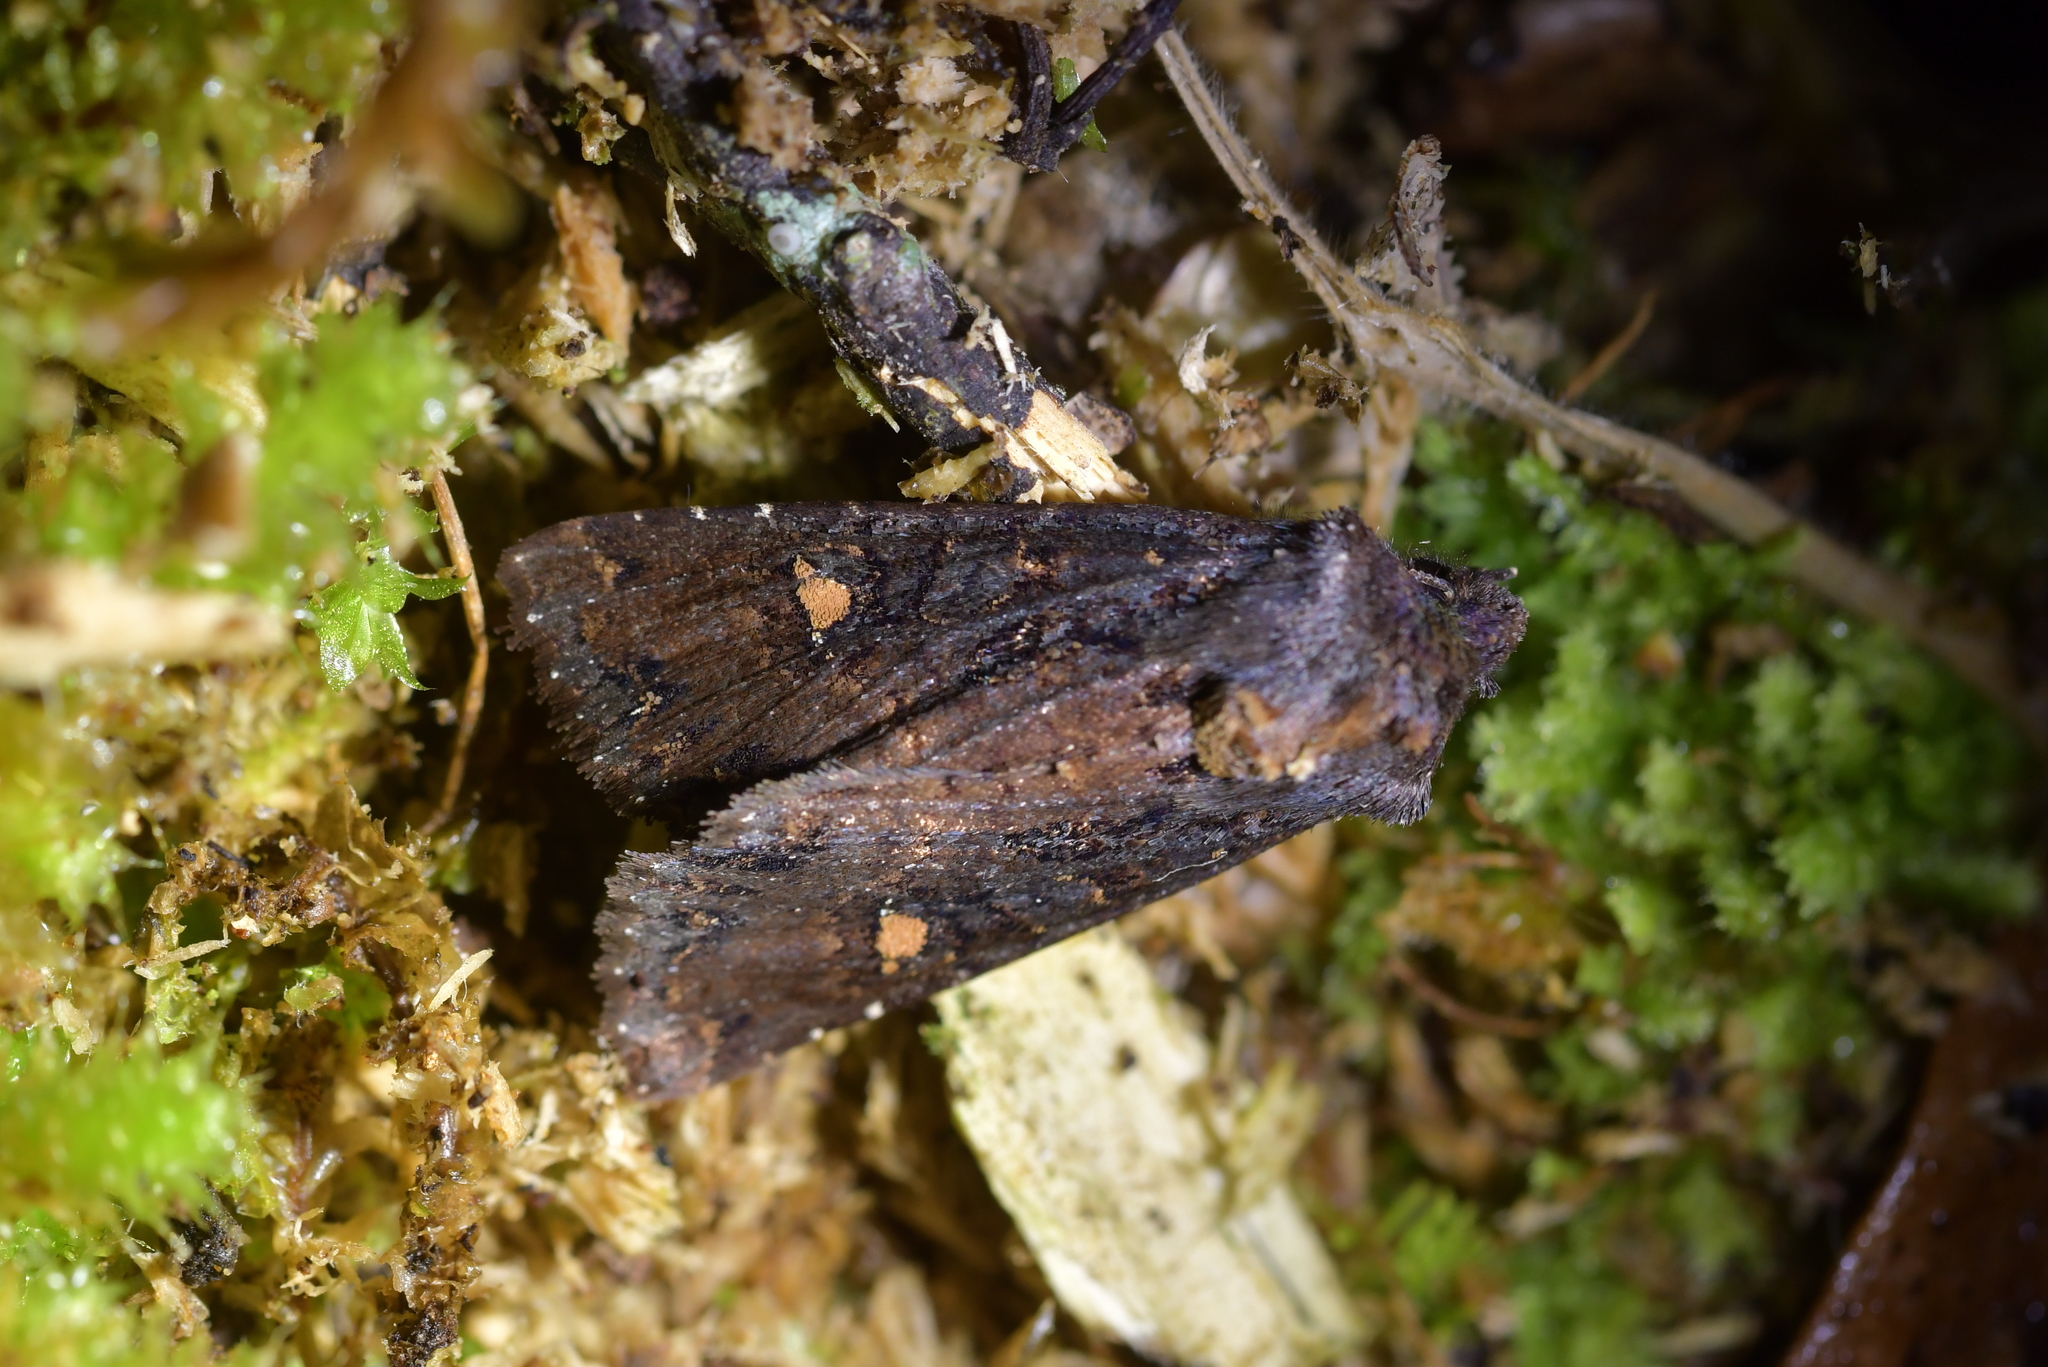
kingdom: Animalia
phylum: Arthropoda
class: Insecta
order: Lepidoptera
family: Noctuidae
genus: Meterana
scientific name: Meterana vitiosa
